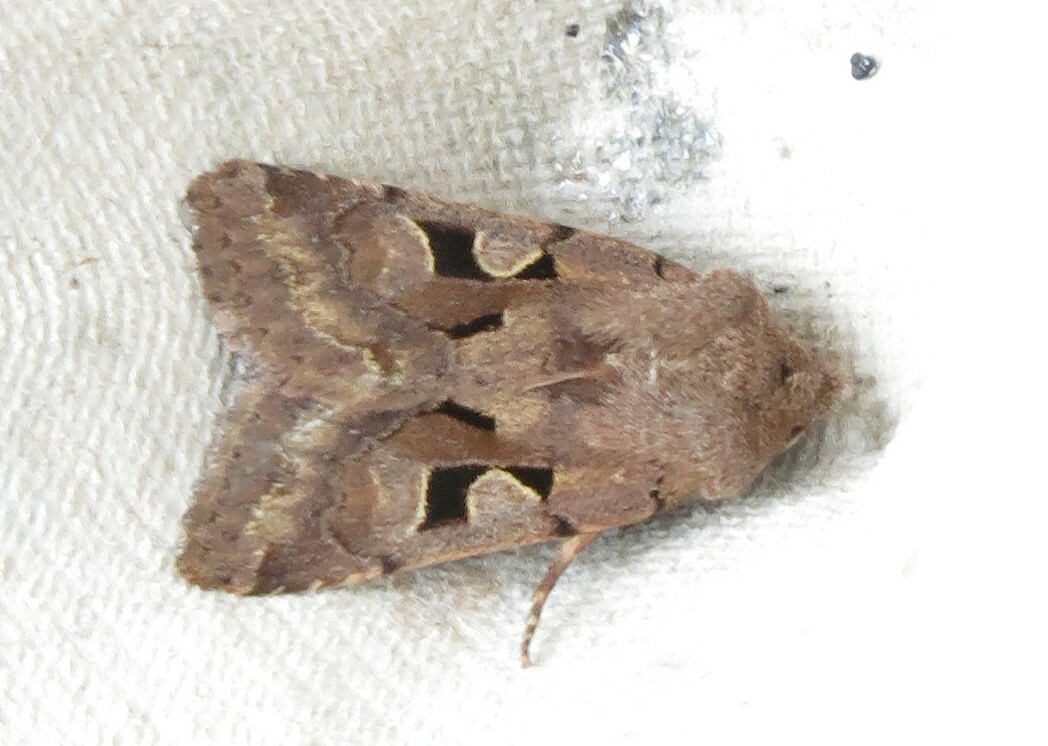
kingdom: Animalia
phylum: Arthropoda
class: Insecta
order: Lepidoptera
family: Noctuidae
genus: Orthosia
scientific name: Orthosia gothica
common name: Hebrew character
